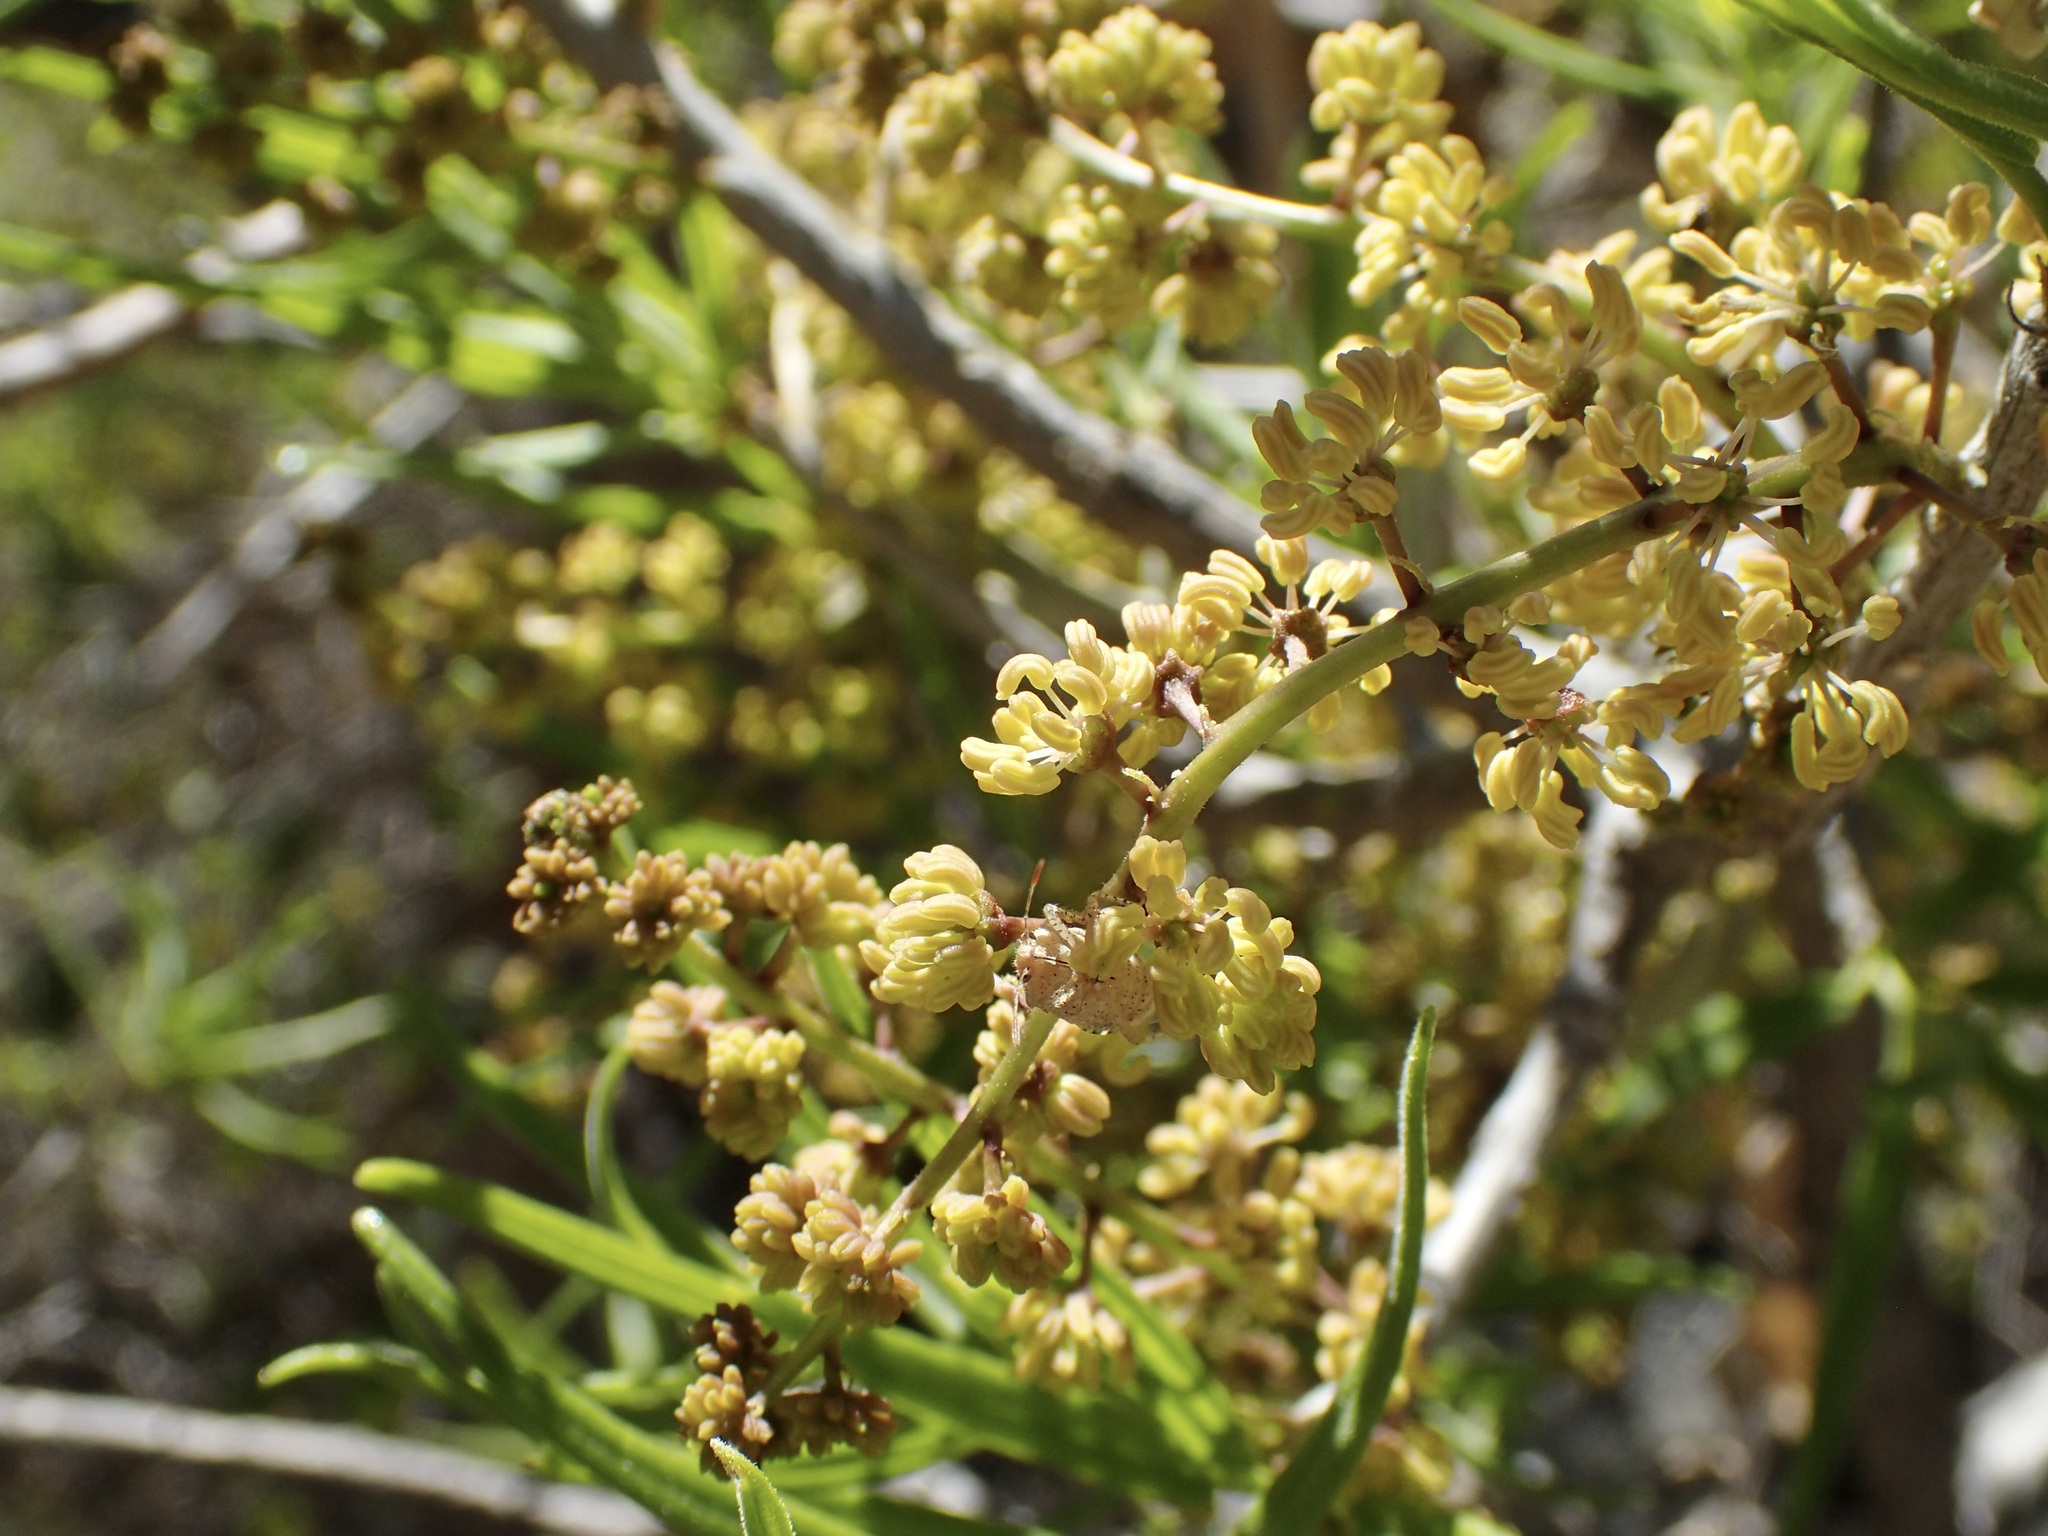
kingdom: Plantae
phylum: Tracheophyta
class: Magnoliopsida
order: Brassicales
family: Stixaceae
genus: Forchhammeria
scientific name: Forchhammeria watsonii
